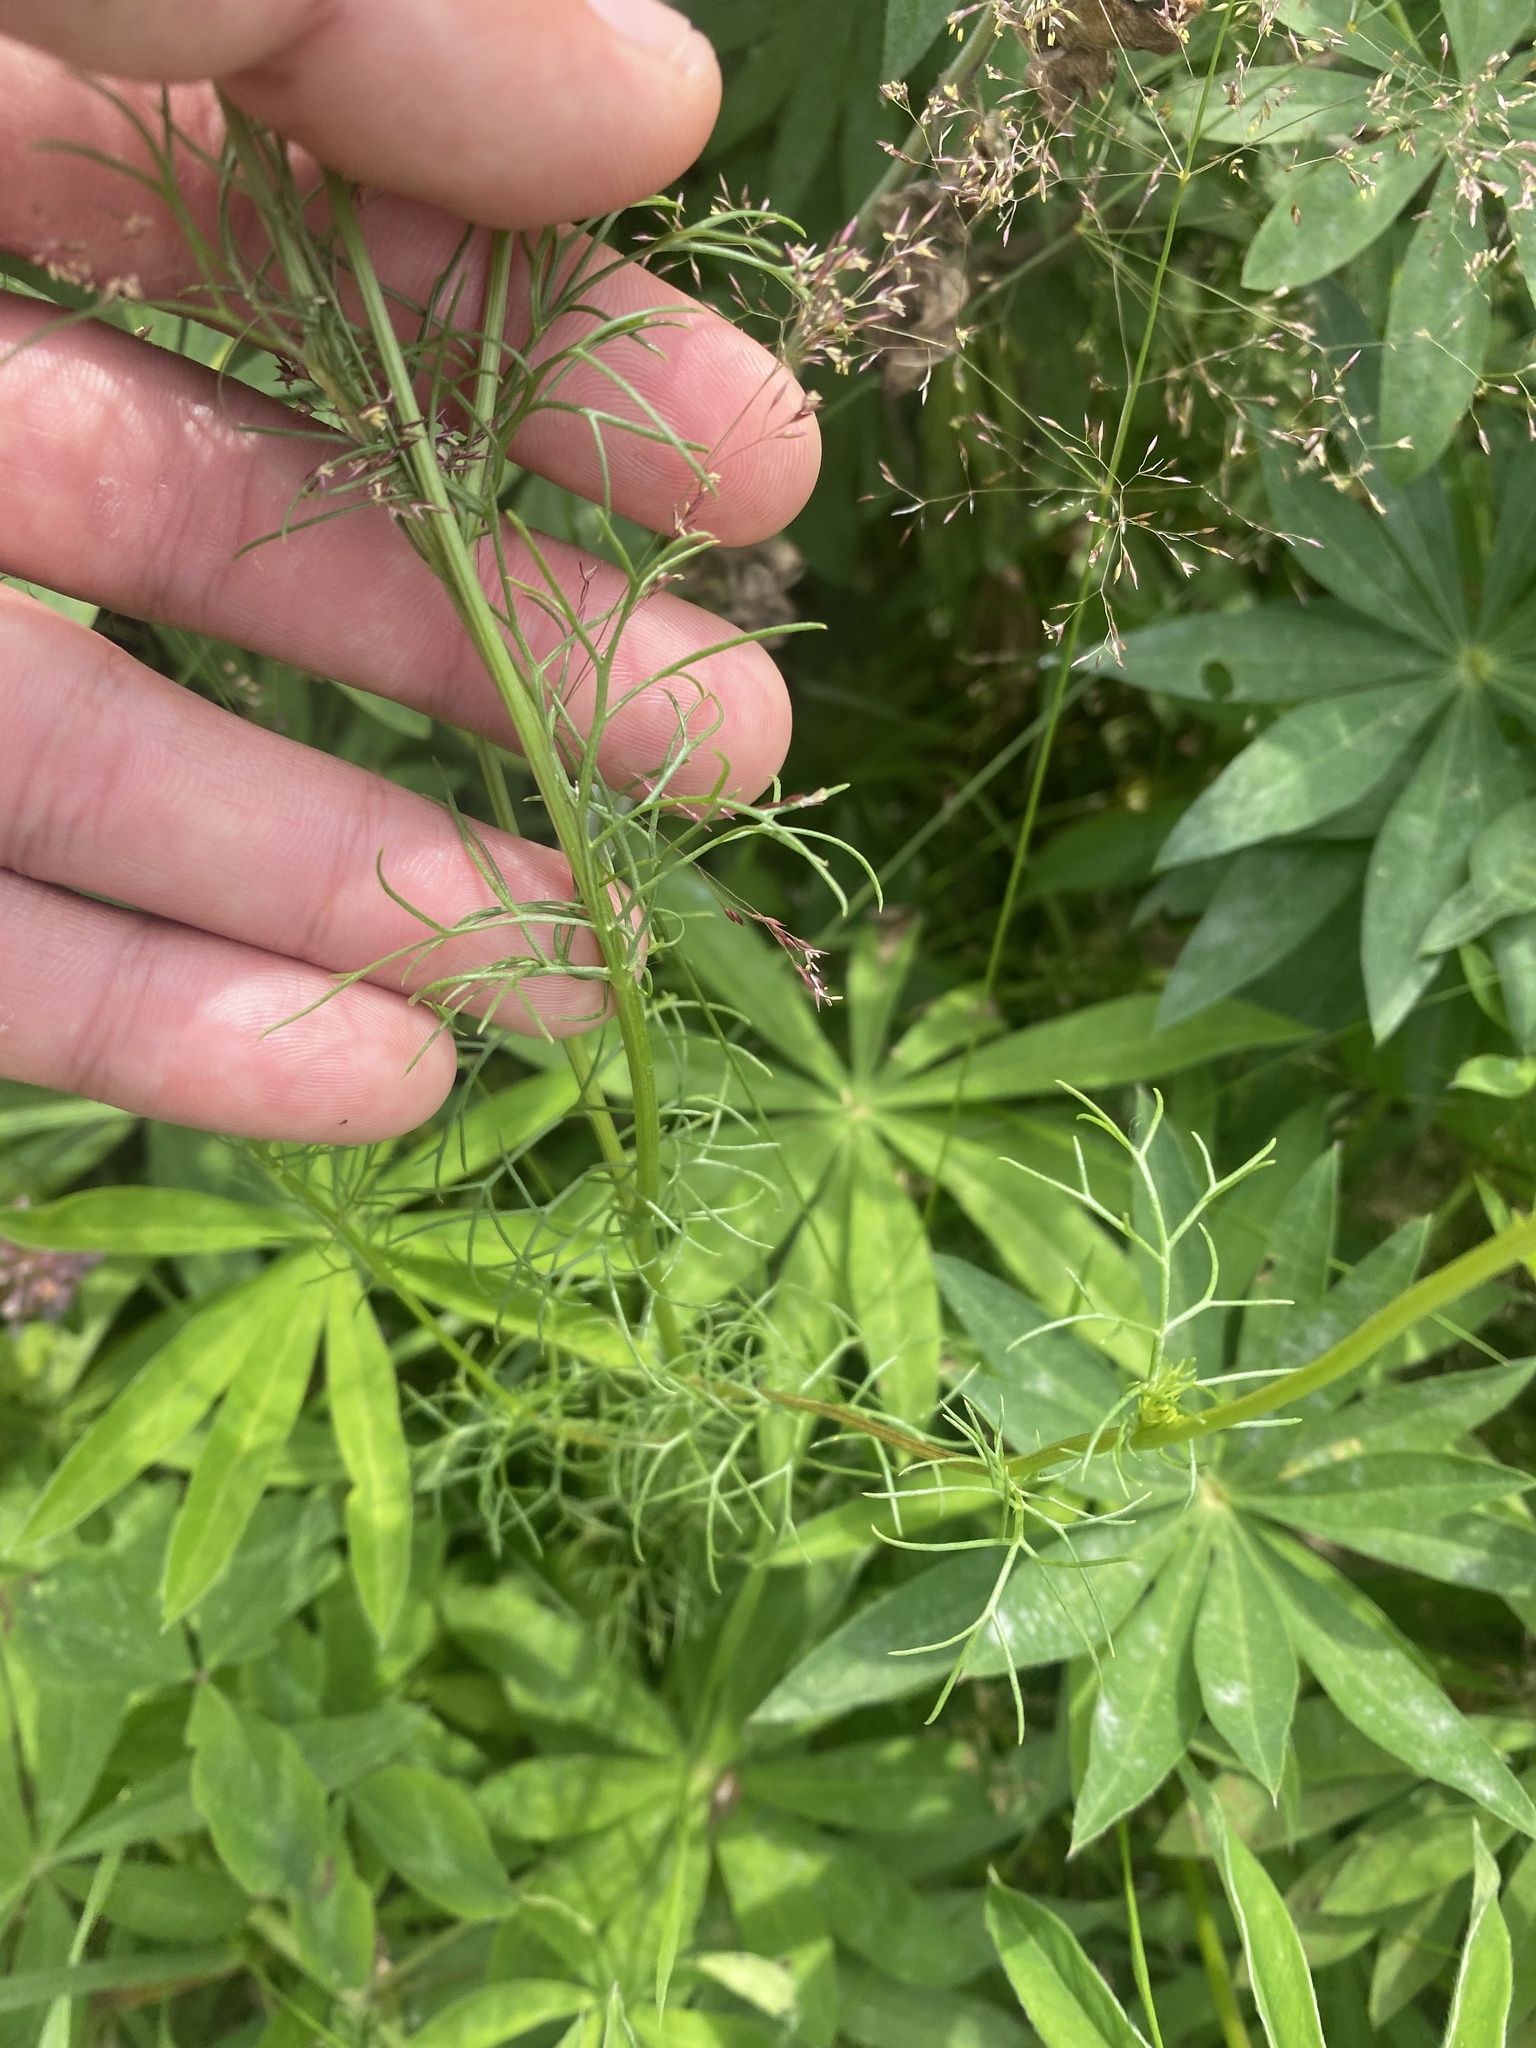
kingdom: Plantae
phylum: Tracheophyta
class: Magnoliopsida
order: Asterales
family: Asteraceae
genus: Tripleurospermum
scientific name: Tripleurospermum inodorum
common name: Scentless mayweed
